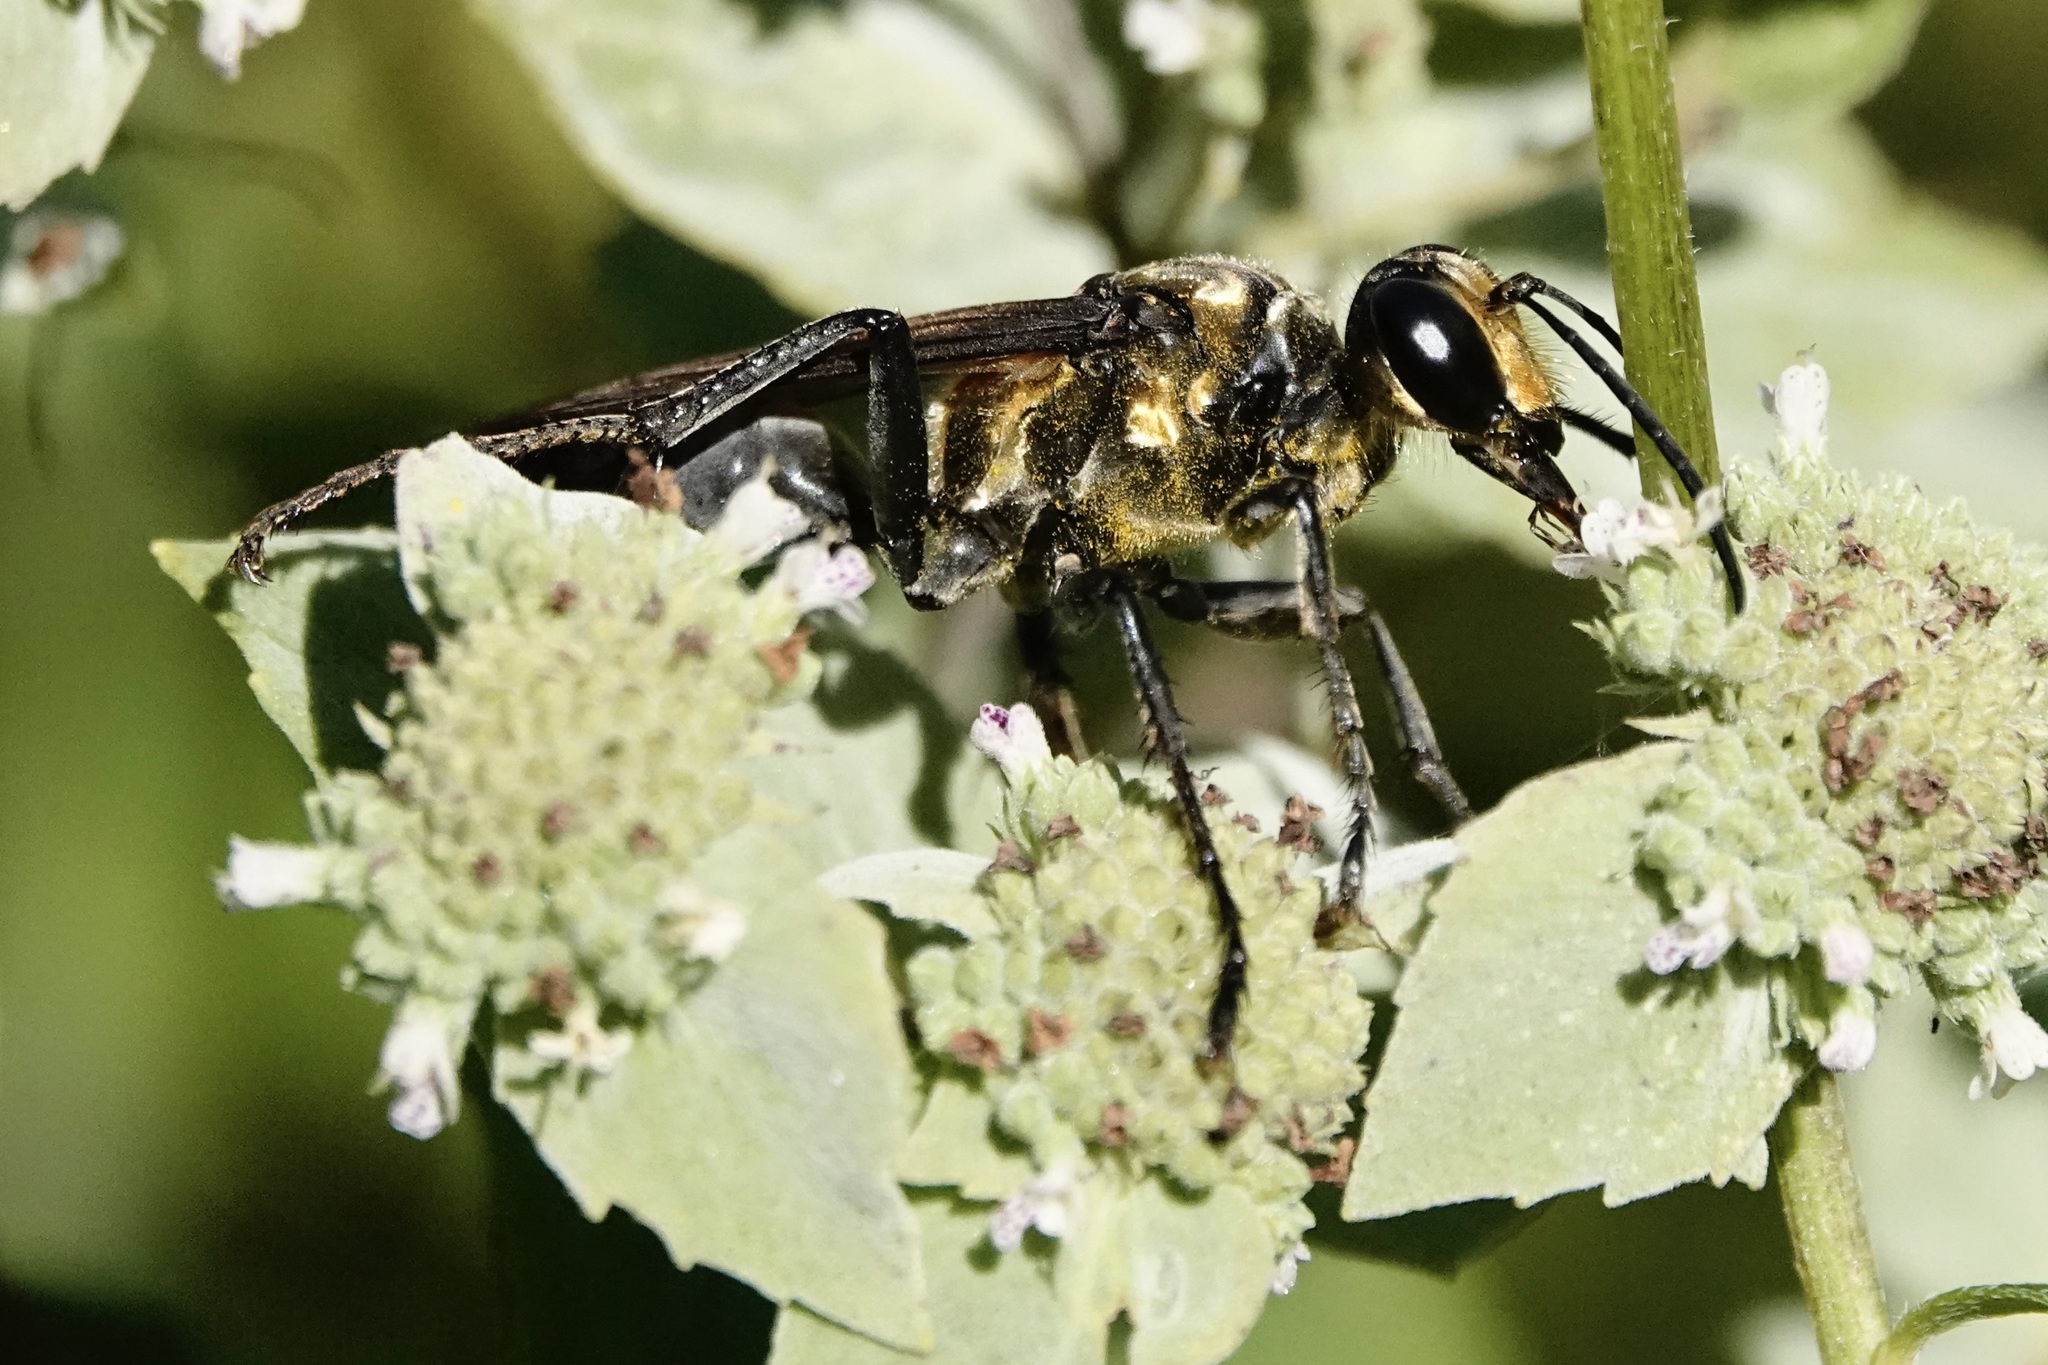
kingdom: Animalia
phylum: Arthropoda
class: Insecta
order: Hymenoptera
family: Sphecidae
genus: Sphex
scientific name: Sphex habenus
